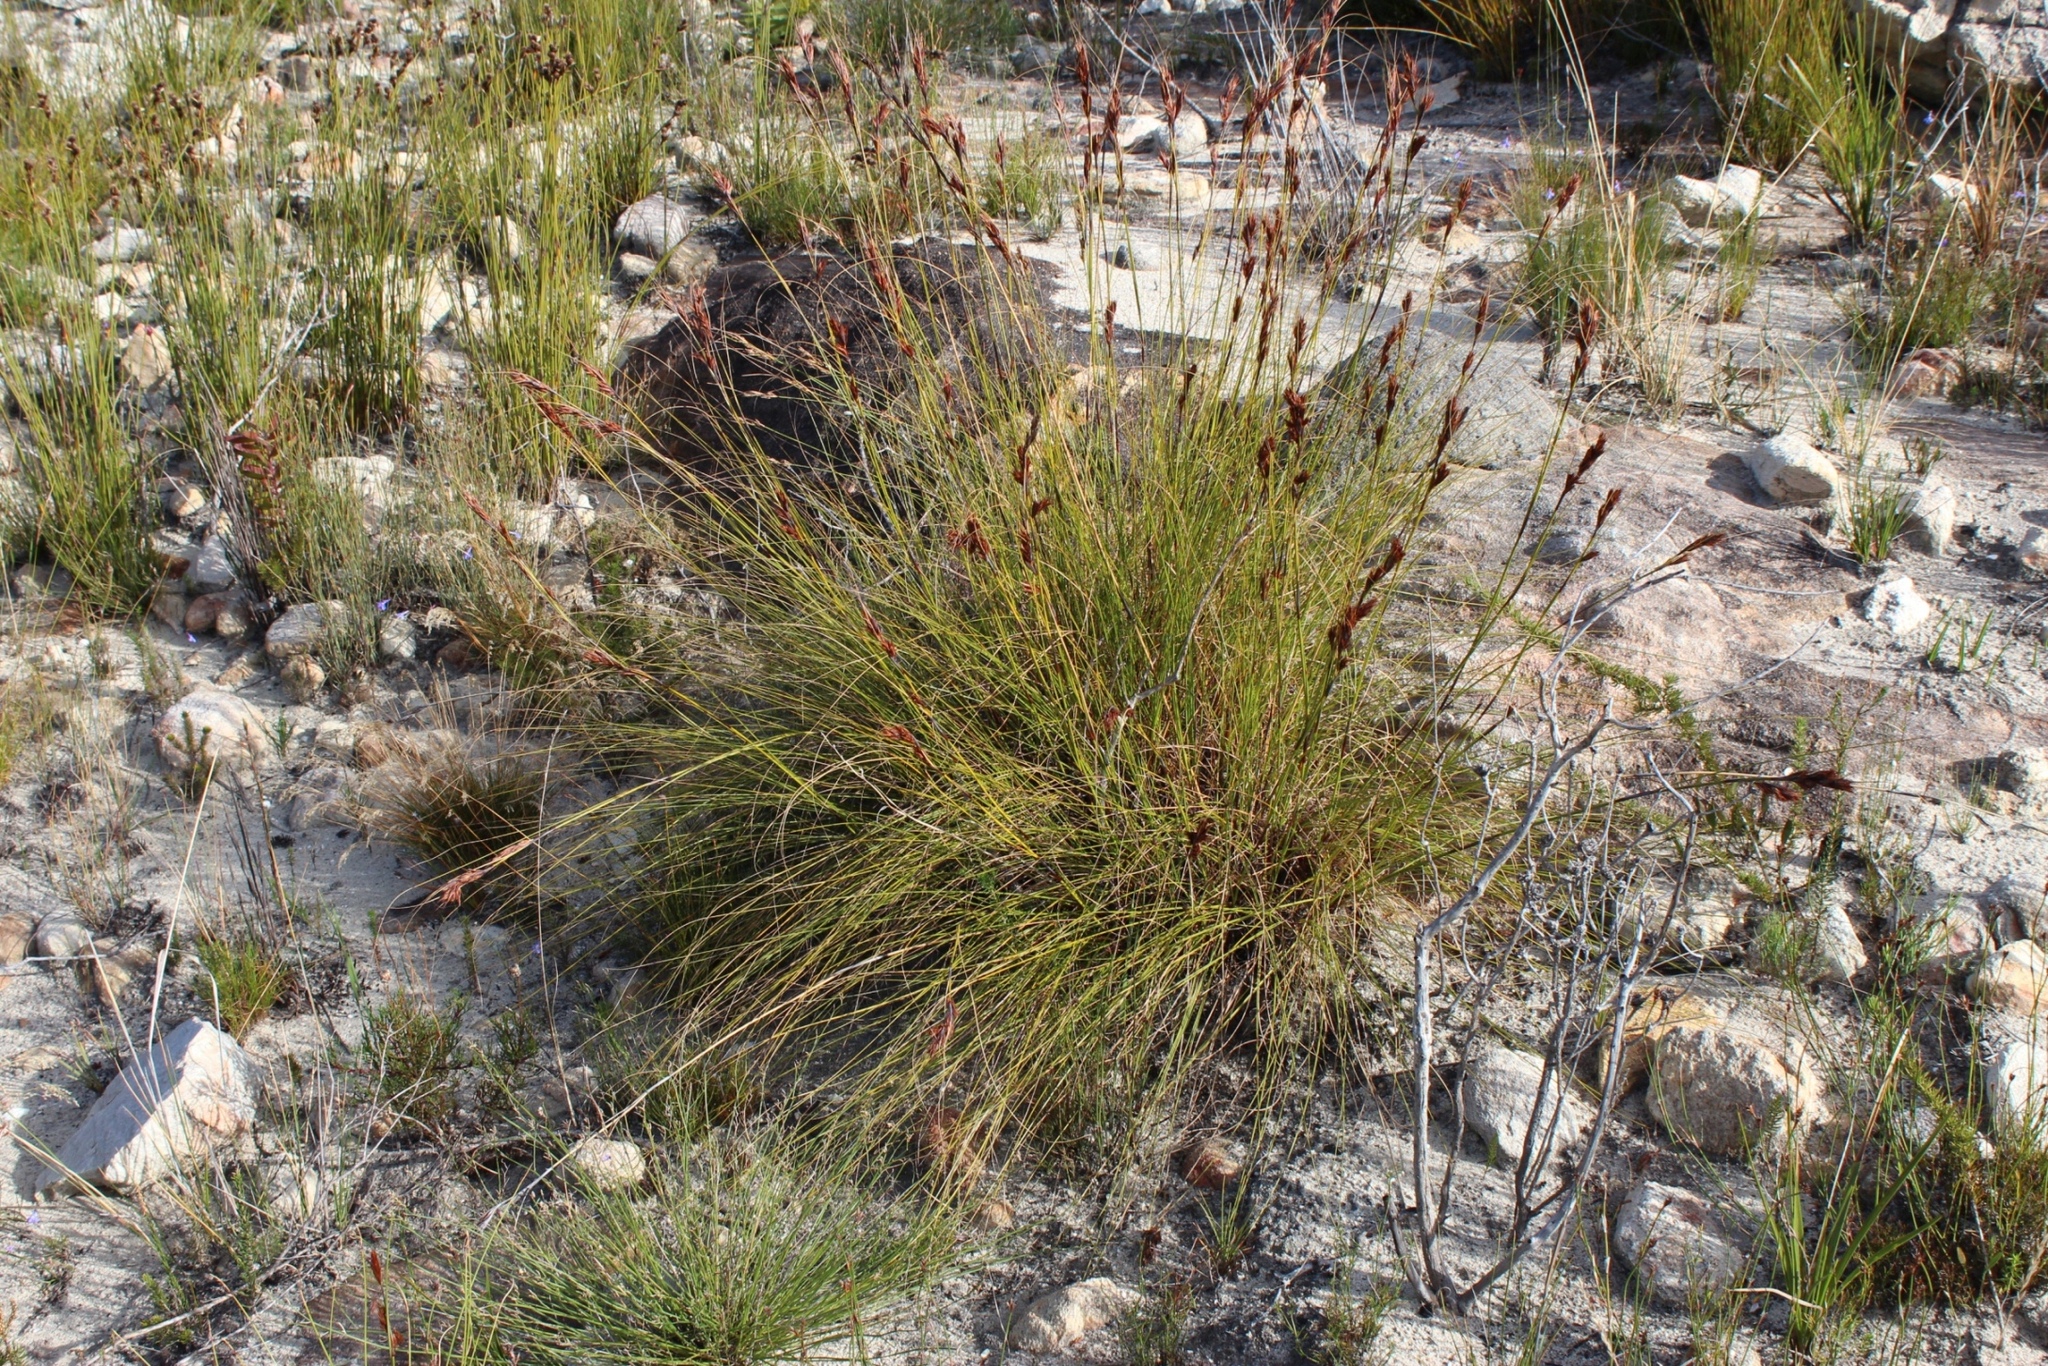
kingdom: Plantae
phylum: Tracheophyta
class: Liliopsida
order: Poales
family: Cyperaceae
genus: Tetraria
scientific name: Tetraria ustulata
